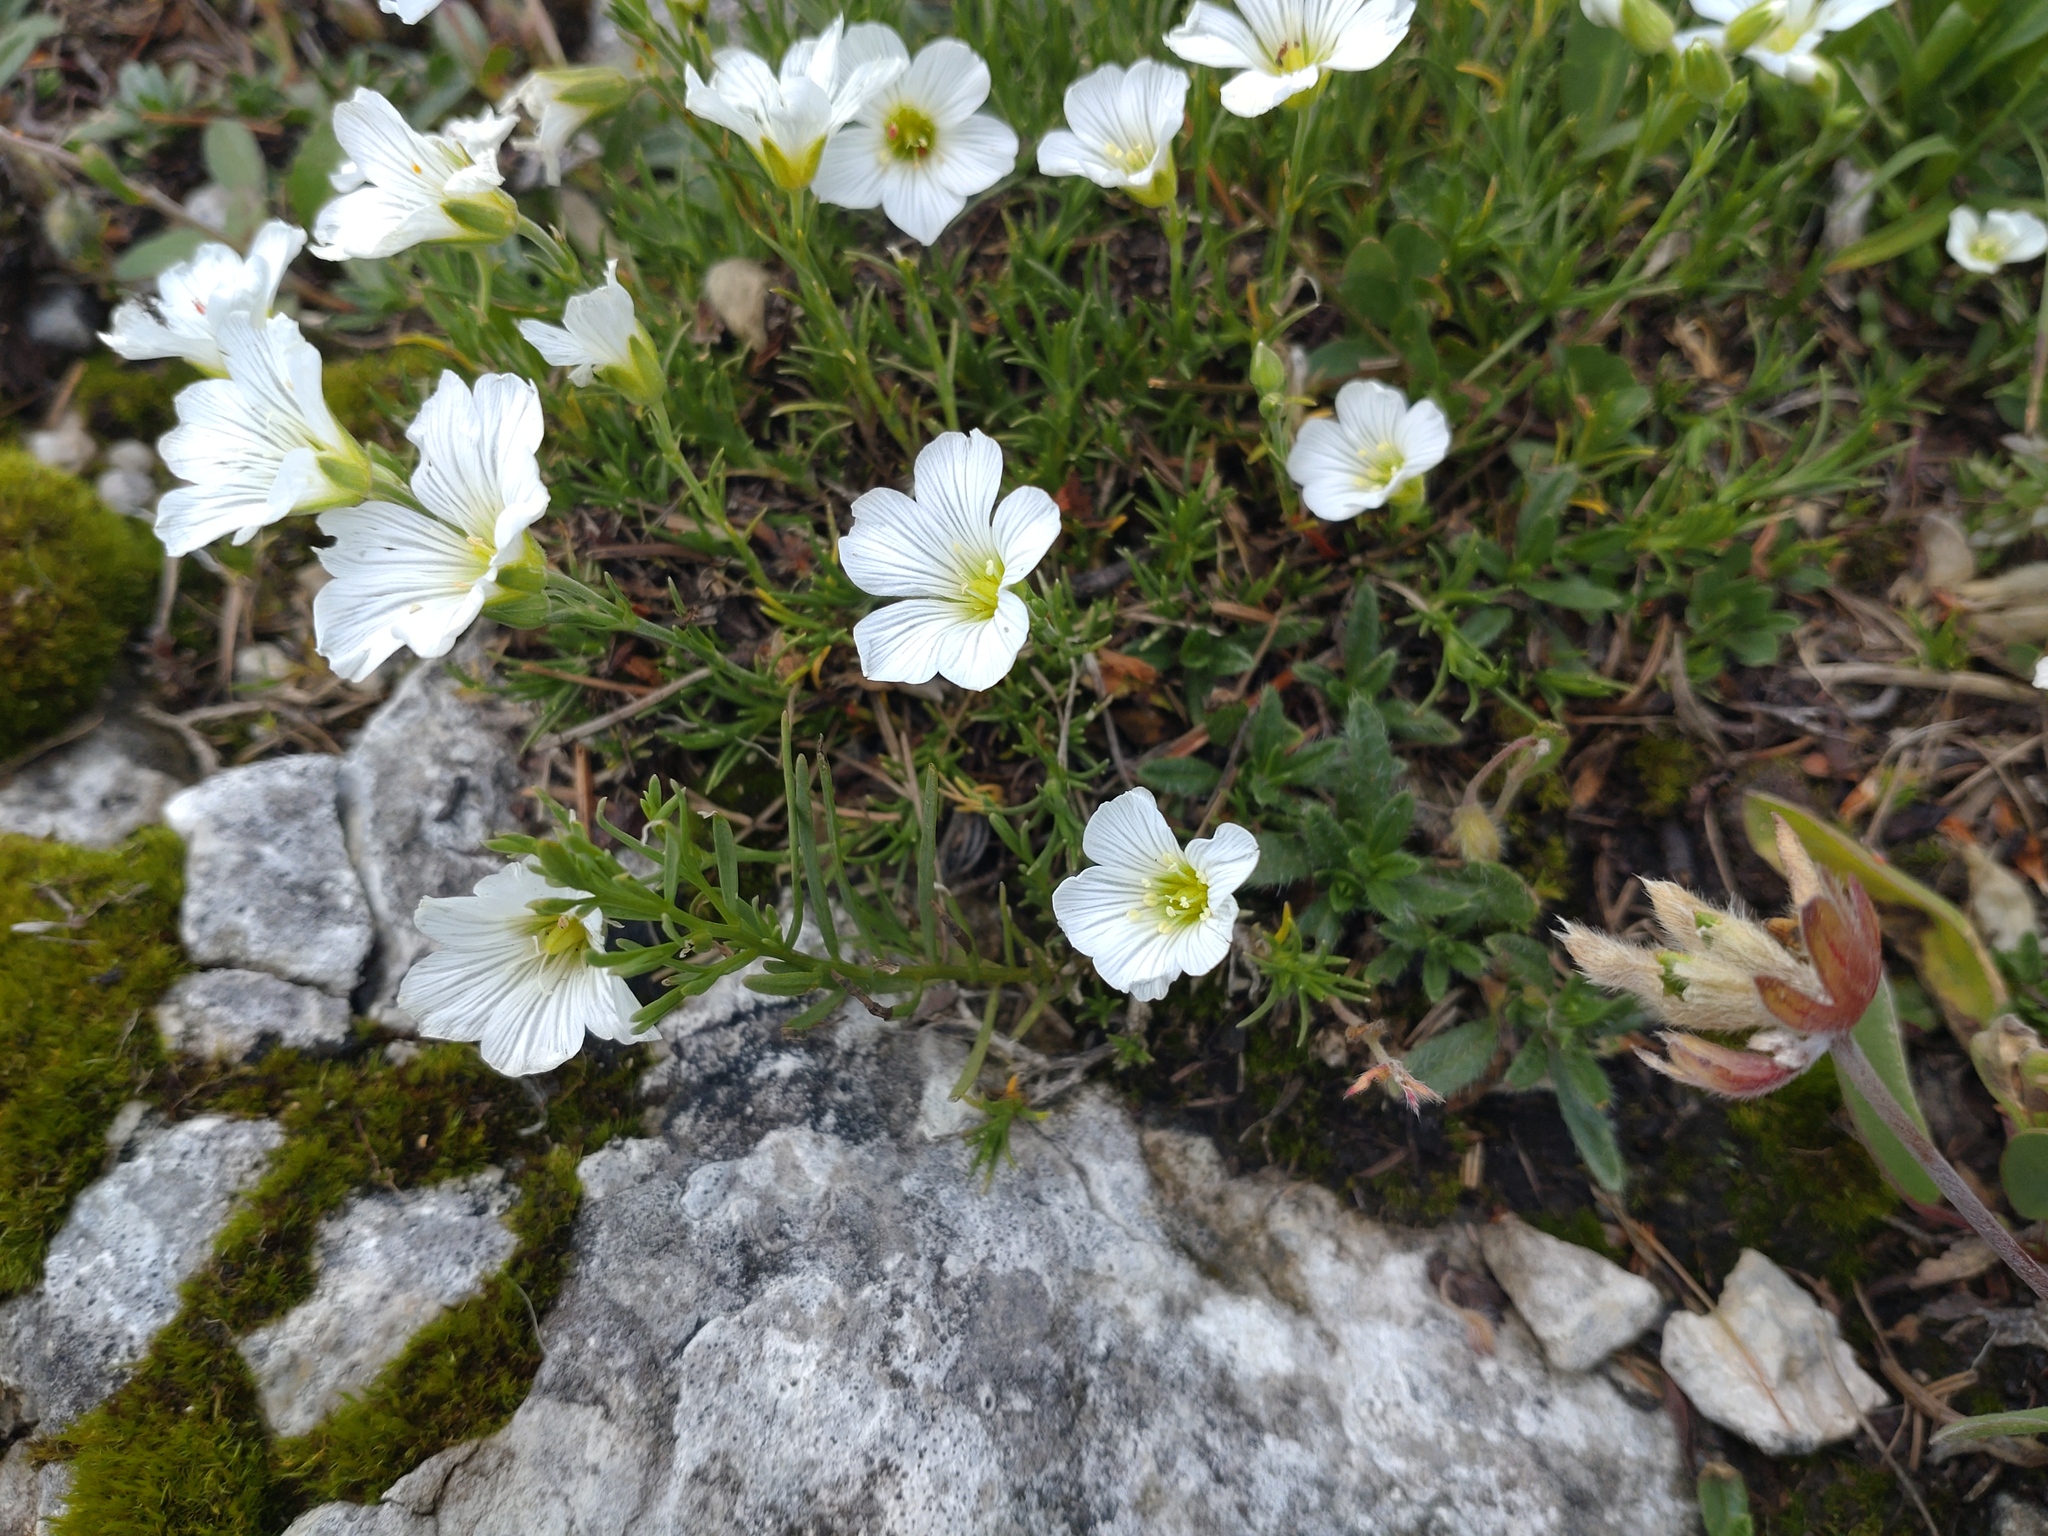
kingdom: Plantae
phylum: Tracheophyta
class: Magnoliopsida
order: Caryophyllales
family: Caryophyllaceae
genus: Cerastium
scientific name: Cerastium arvense
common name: Field mouse-ear
